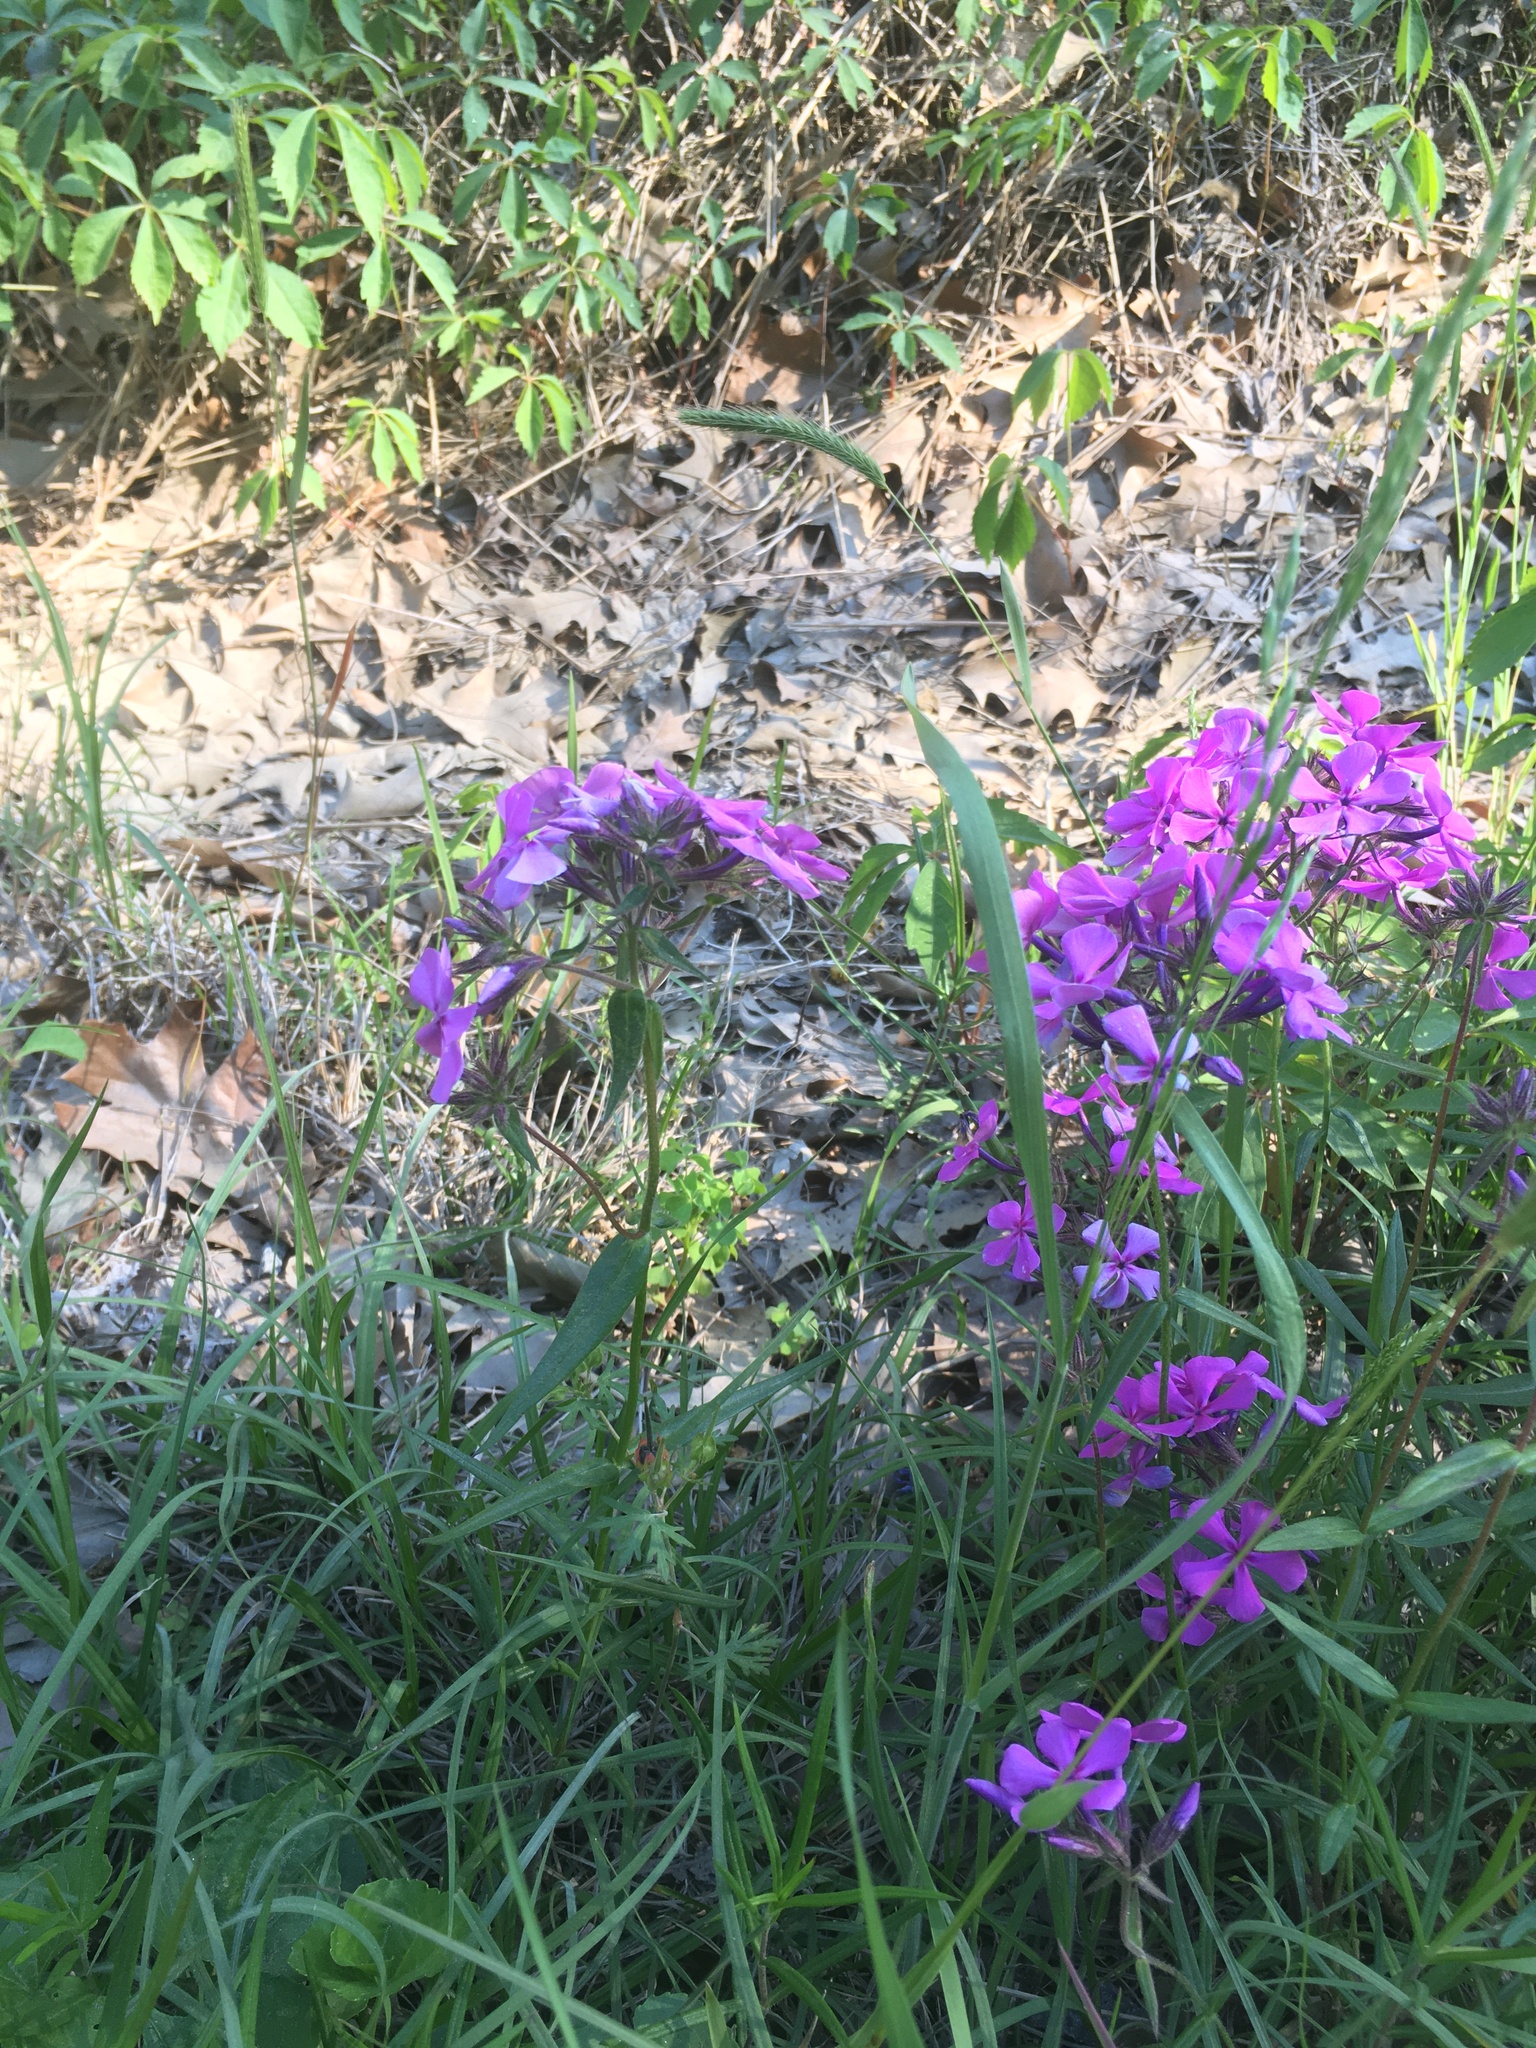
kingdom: Plantae
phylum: Tracheophyta
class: Magnoliopsida
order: Ericales
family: Polemoniaceae
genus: Phlox
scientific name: Phlox pilosa
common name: Prairie phlox
